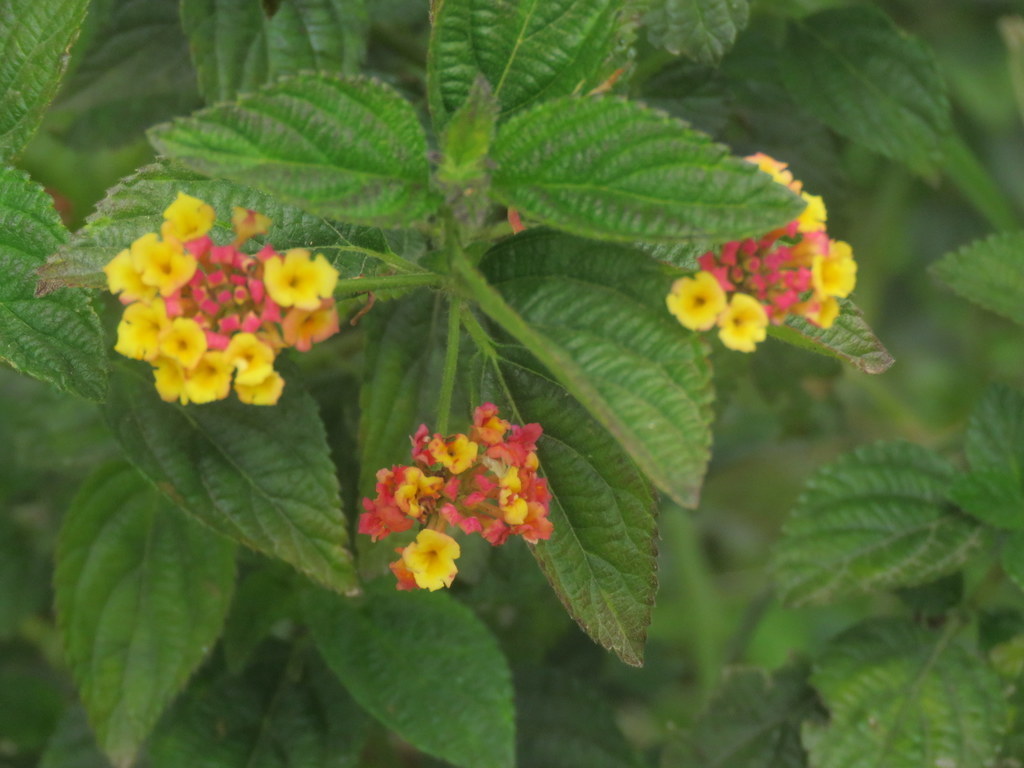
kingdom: Plantae
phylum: Tracheophyta
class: Magnoliopsida
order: Lamiales
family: Verbenaceae
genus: Lantana
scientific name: Lantana camara
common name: Lantana
